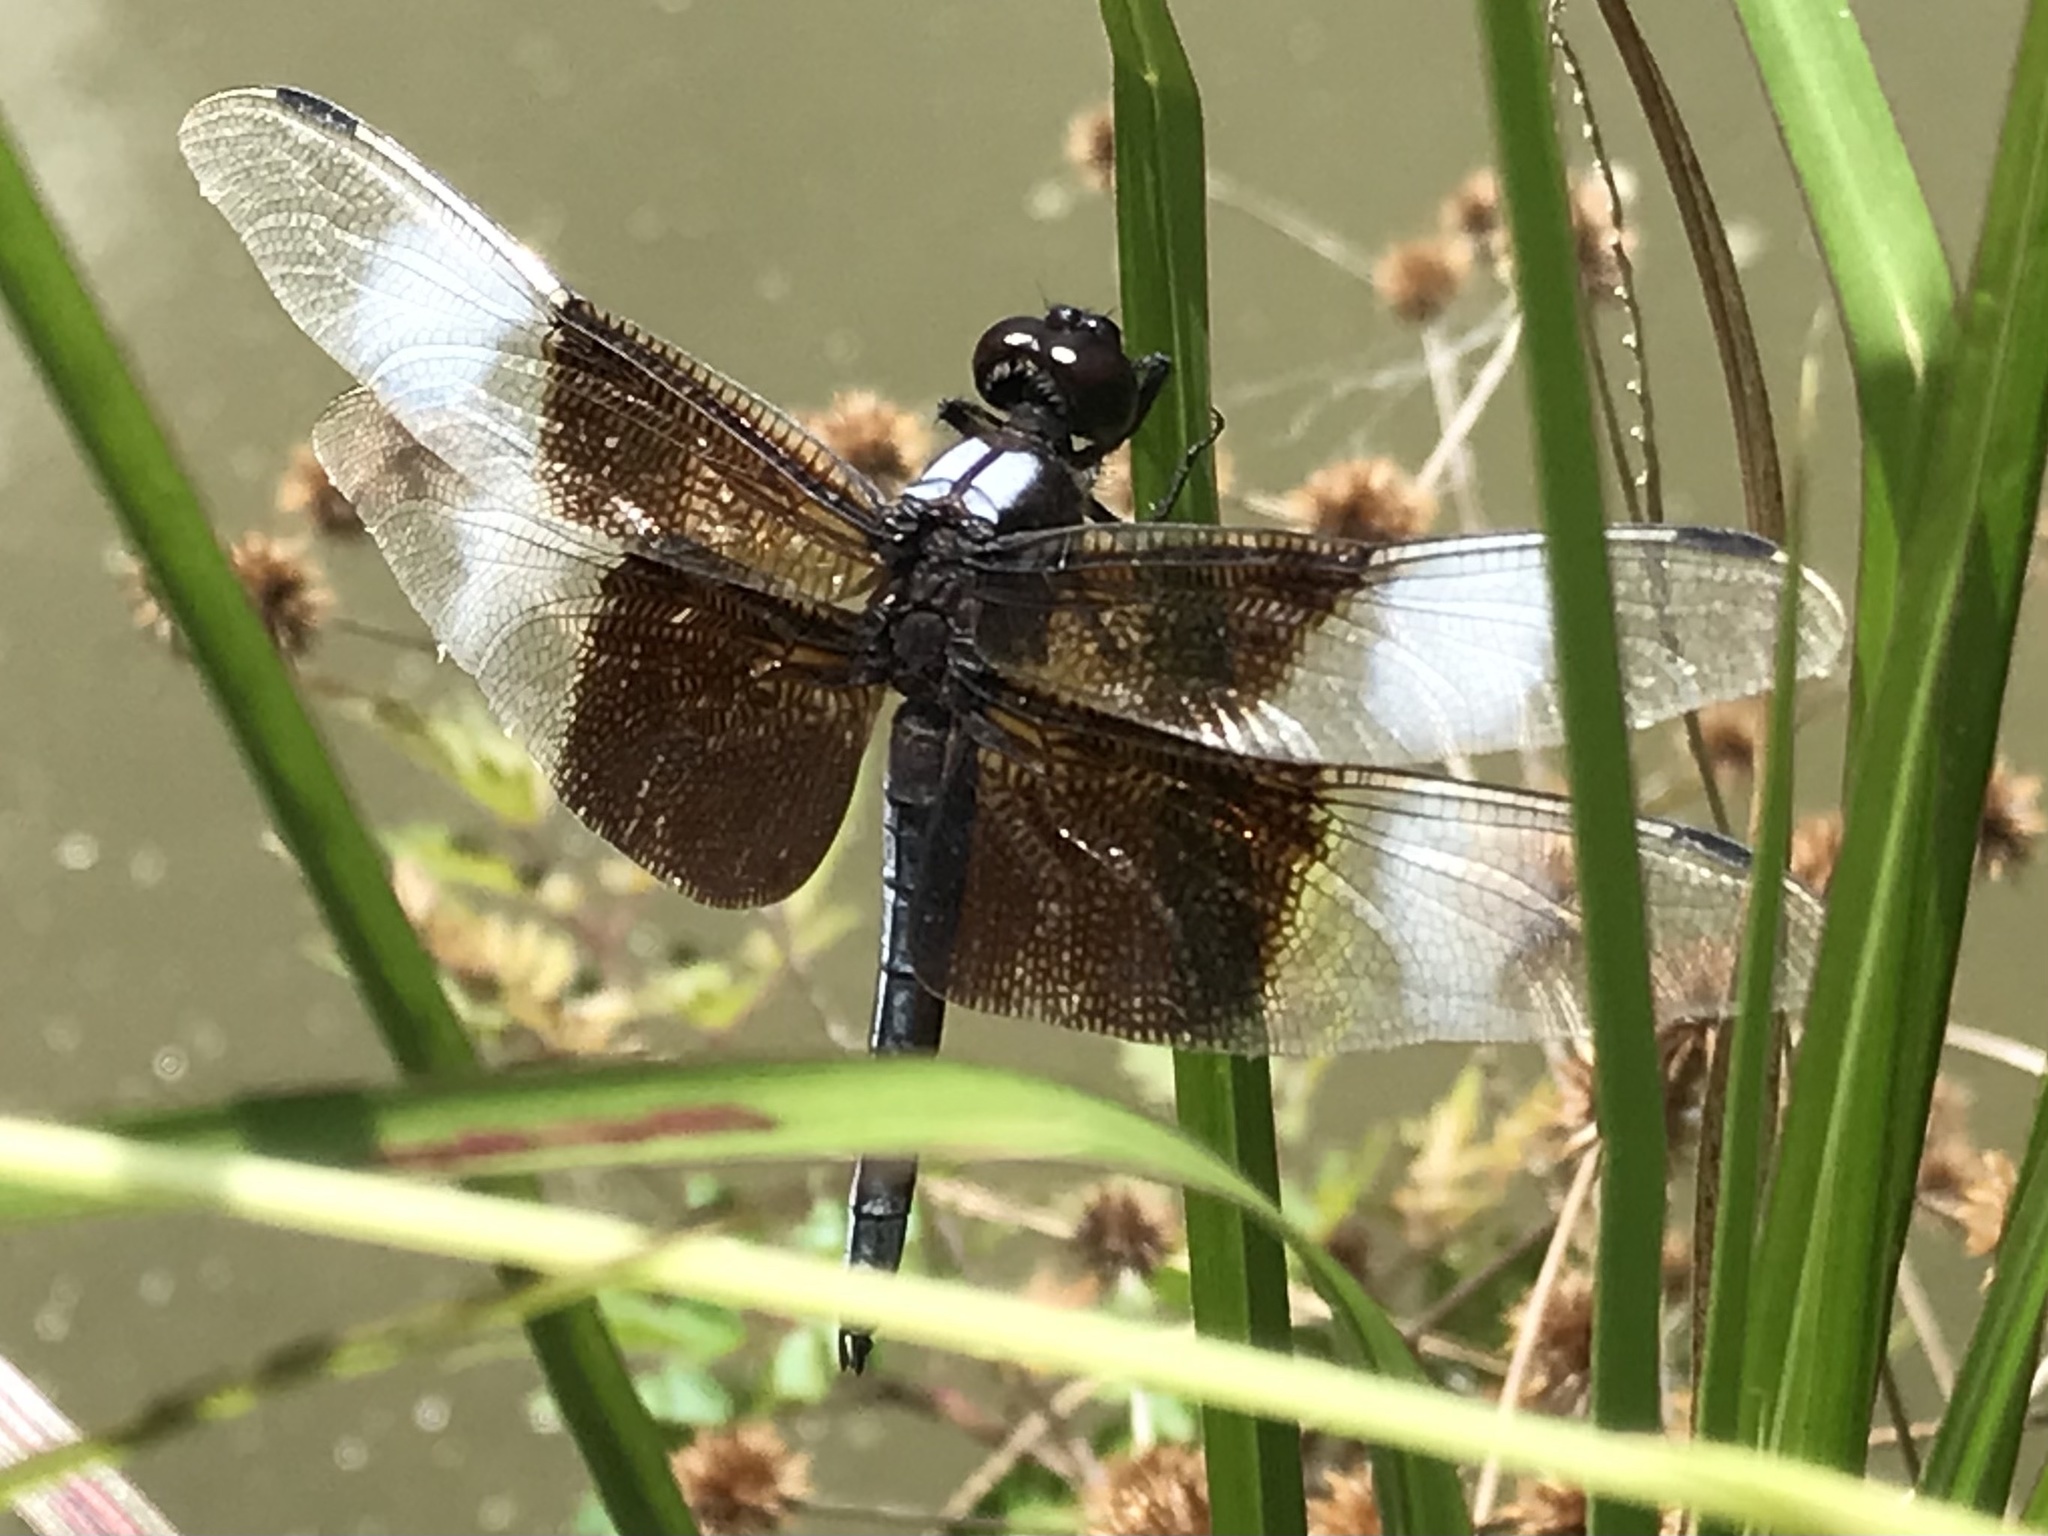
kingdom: Animalia
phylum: Arthropoda
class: Insecta
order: Odonata
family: Libellulidae
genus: Libellula
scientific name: Libellula luctuosa
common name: Widow skimmer
